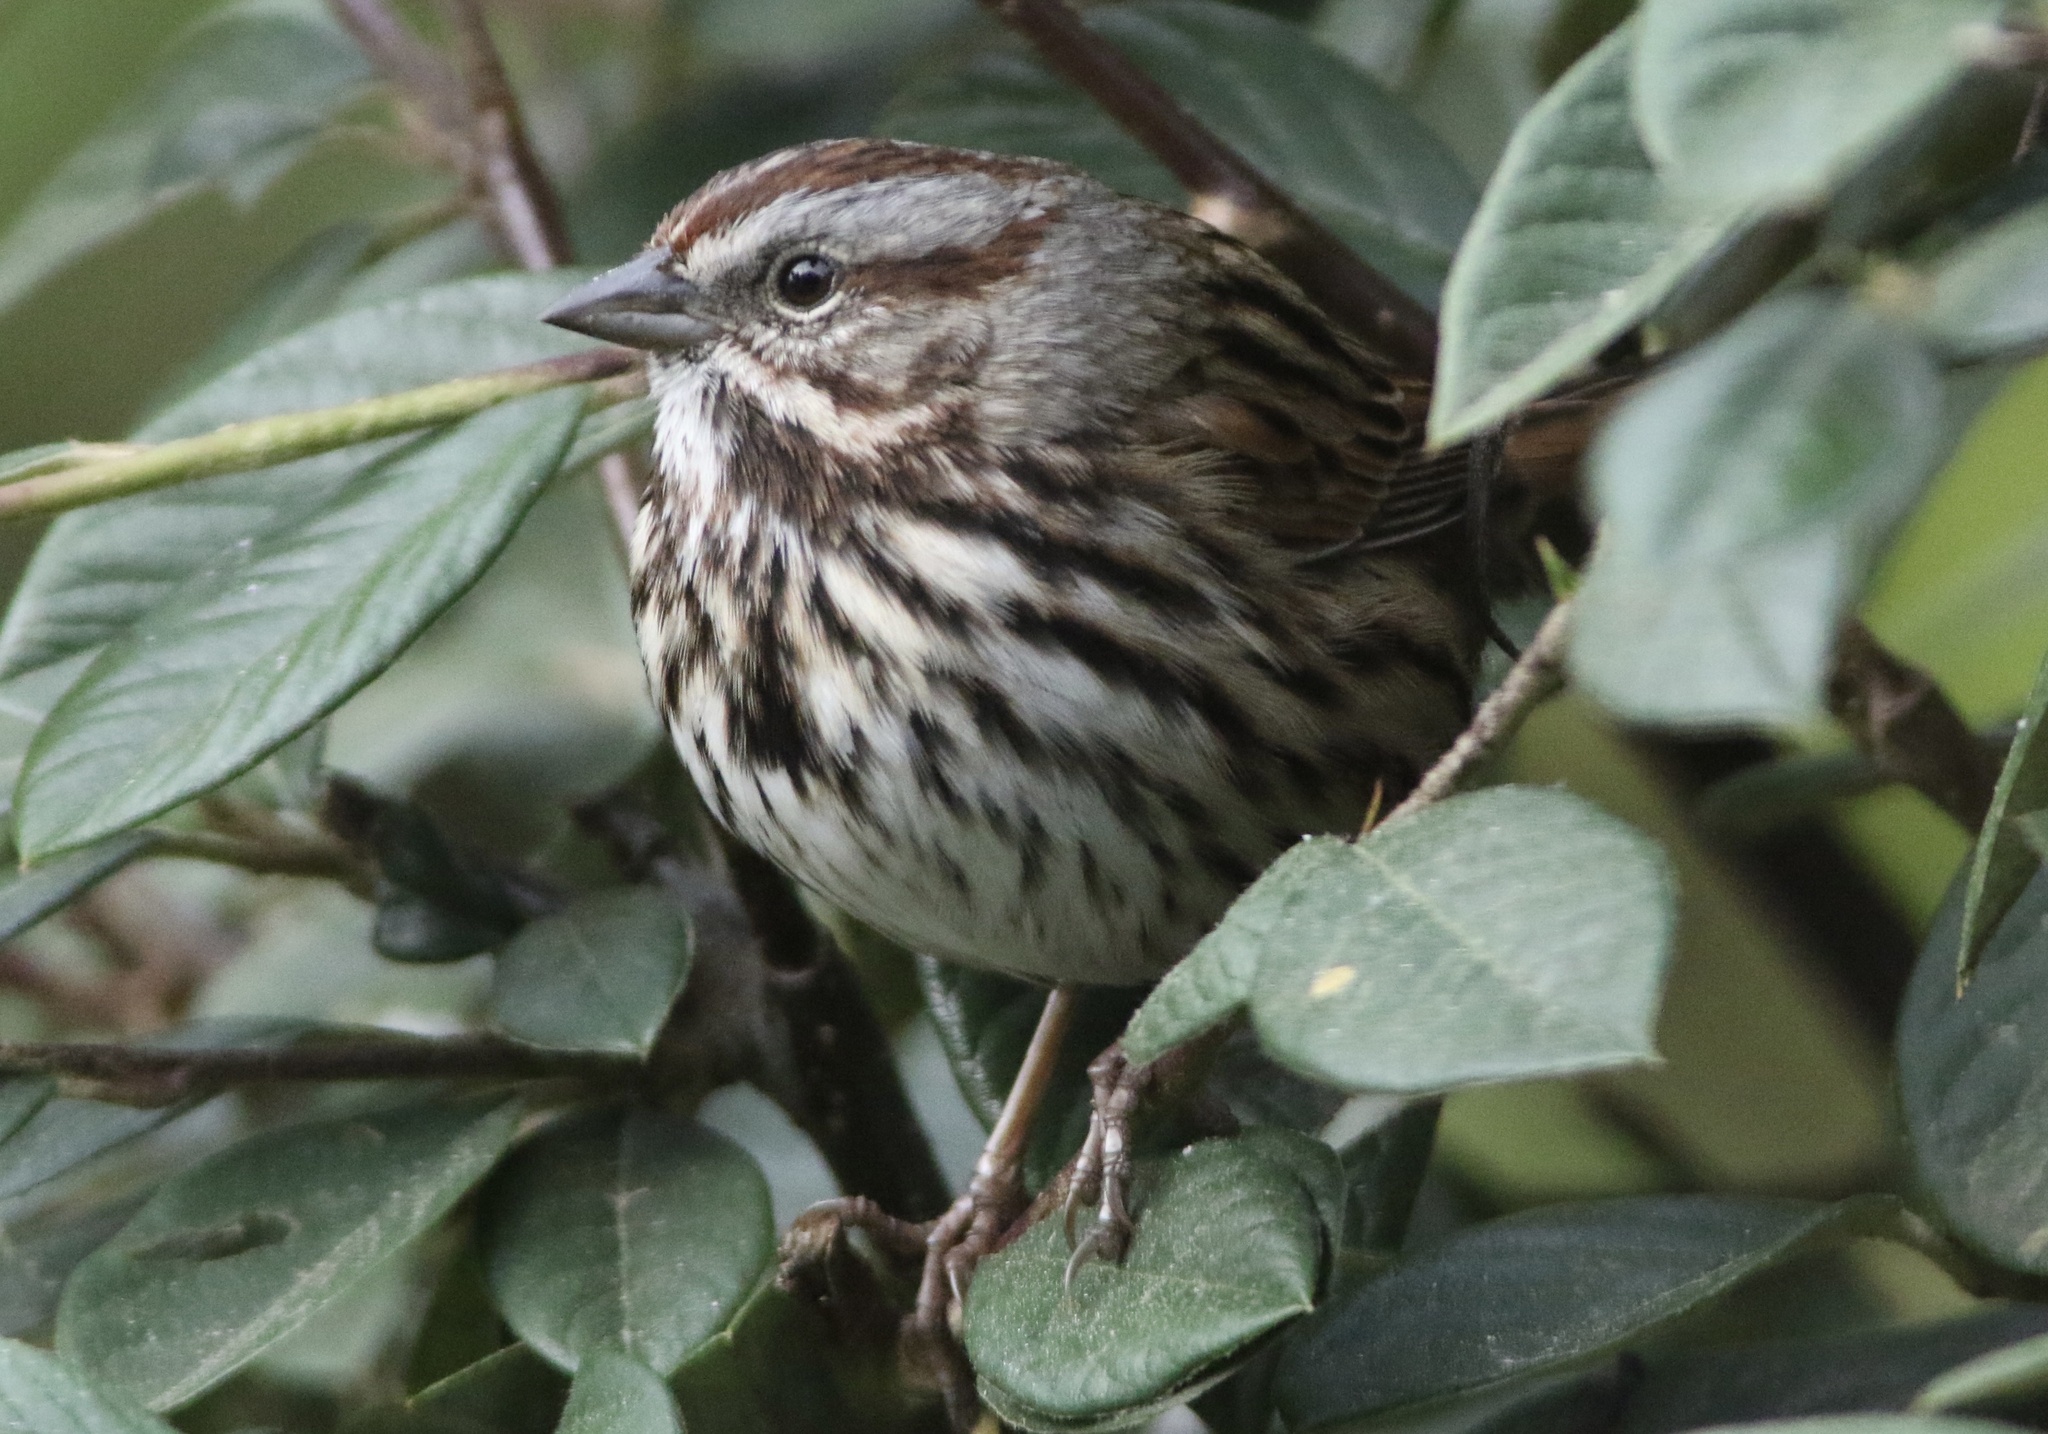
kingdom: Animalia
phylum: Chordata
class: Aves
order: Passeriformes
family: Passerellidae
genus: Melospiza
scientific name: Melospiza melodia
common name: Song sparrow
